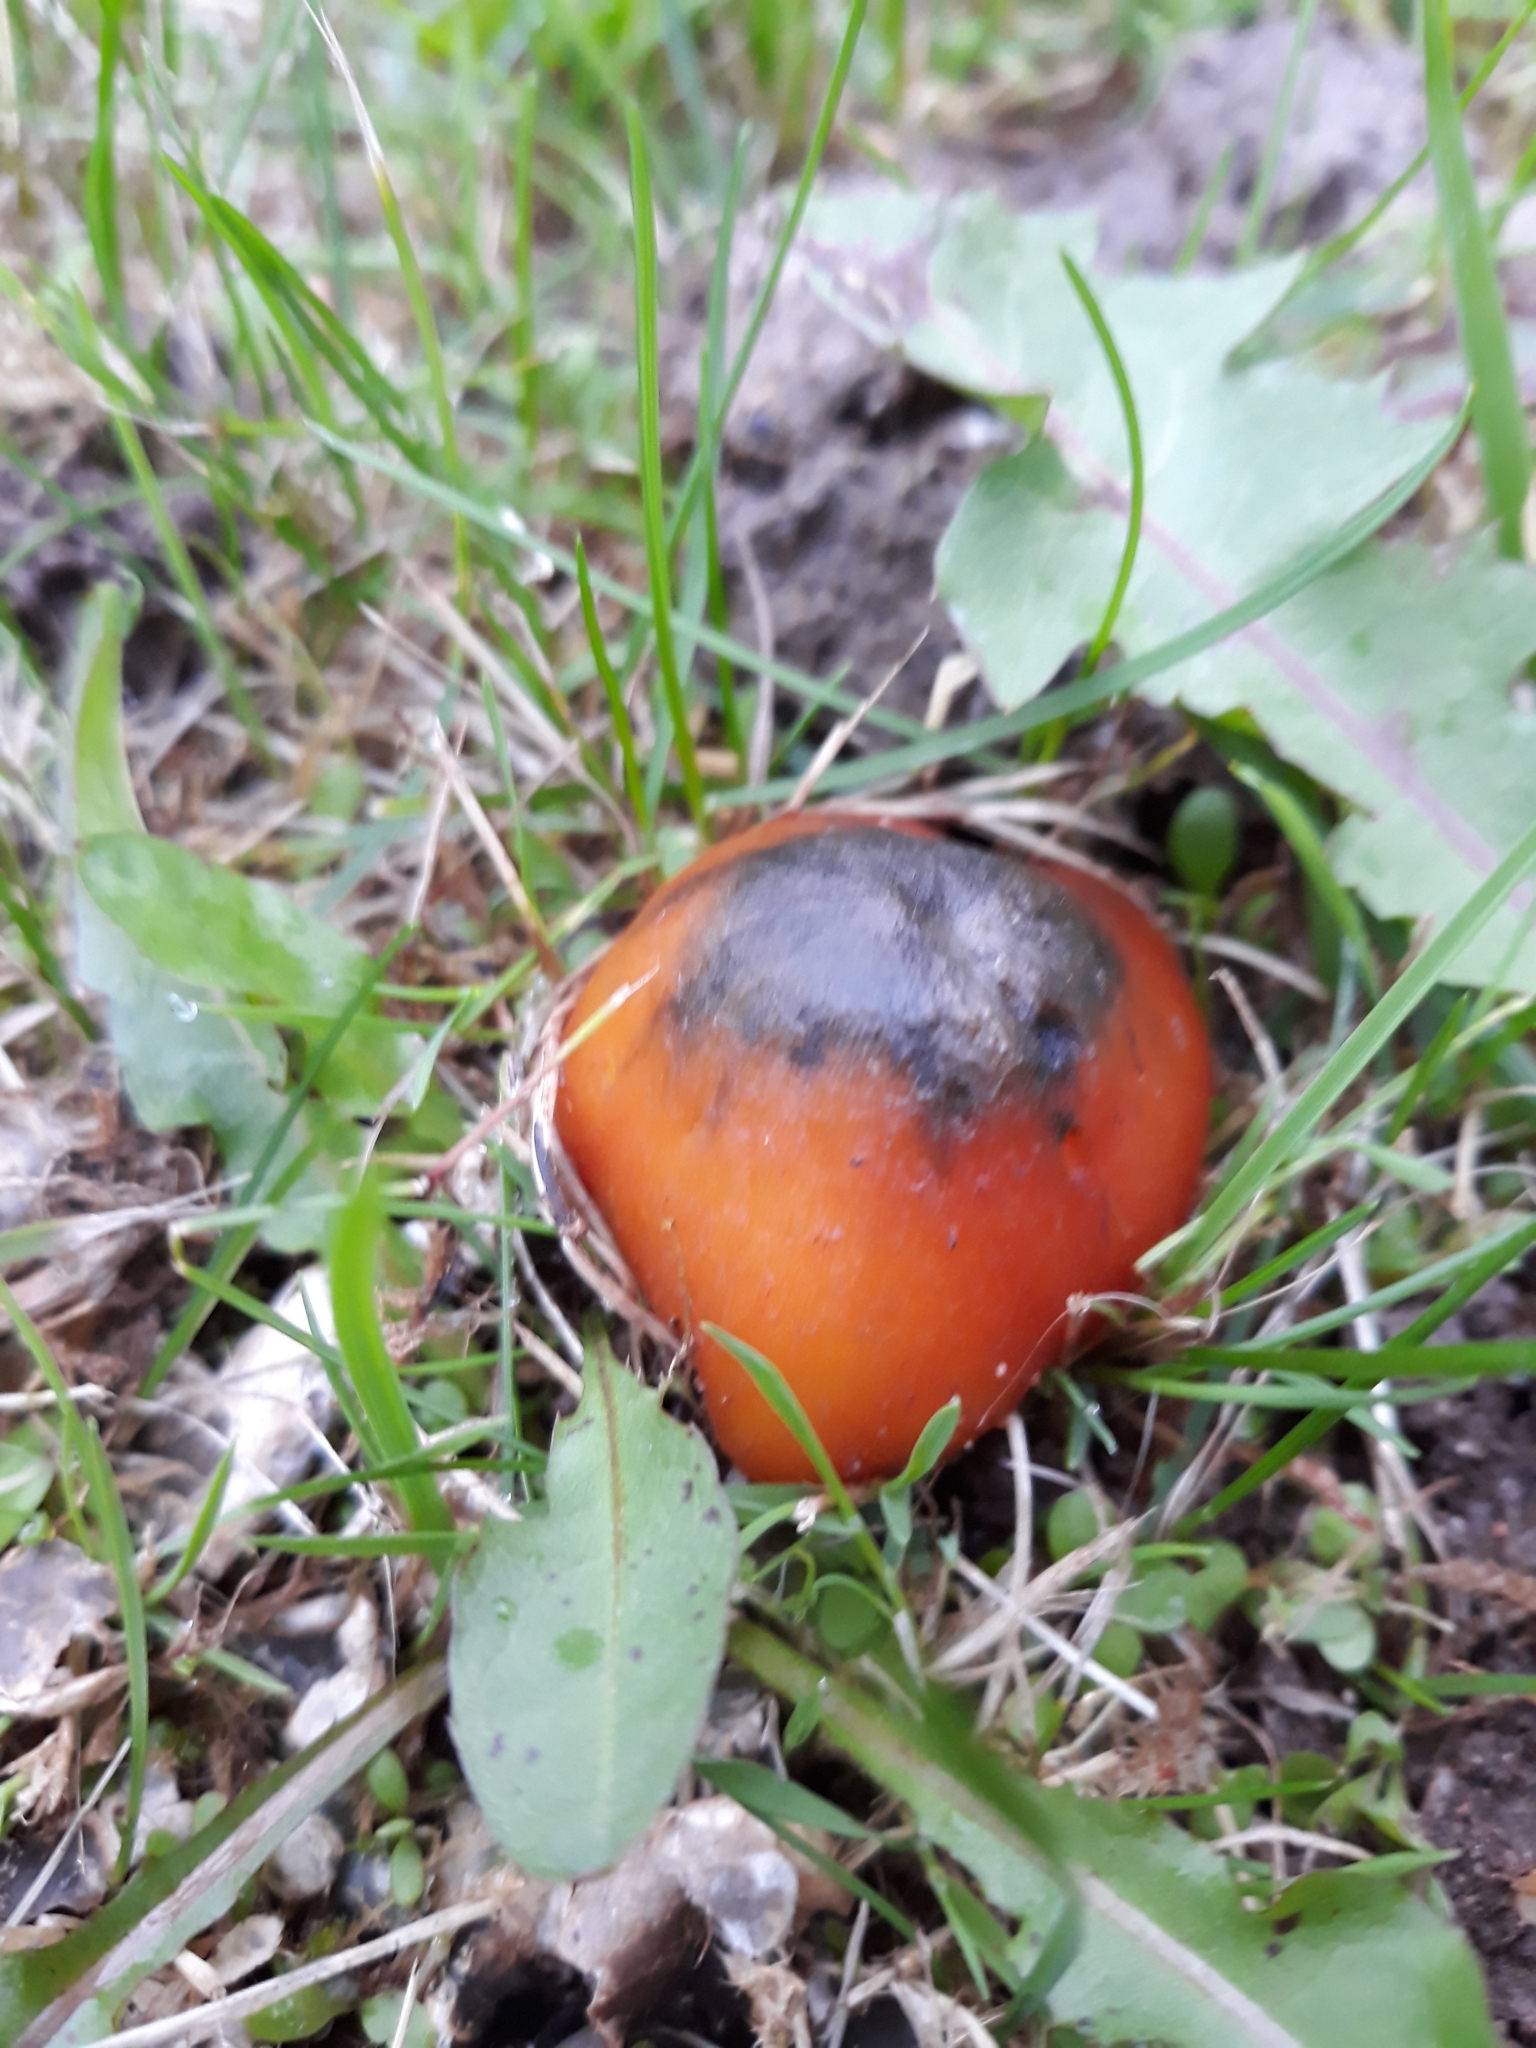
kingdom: Fungi
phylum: Basidiomycota
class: Agaricomycetes
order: Agaricales
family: Hygrophoraceae
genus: Hygrocybe
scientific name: Hygrocybe conica
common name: Blackening wax-cap
